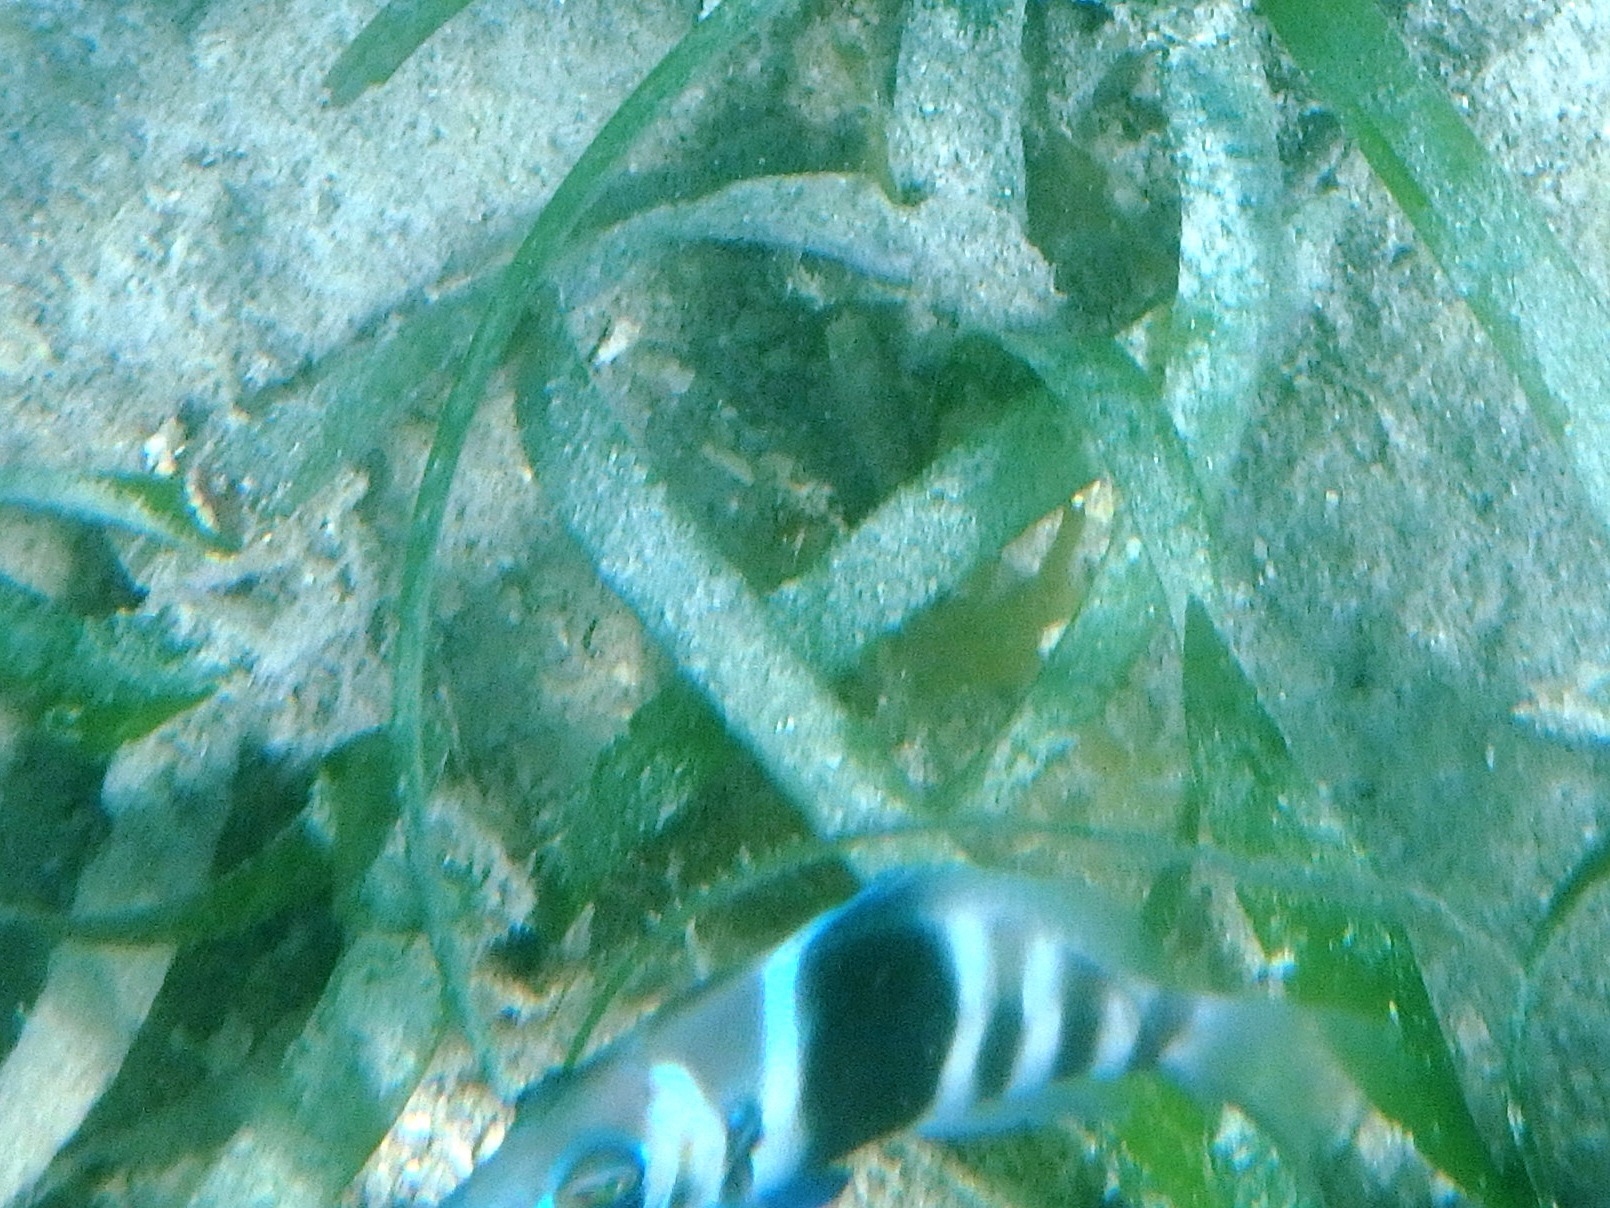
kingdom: Animalia
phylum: Chordata
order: Perciformes
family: Serranidae
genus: Hypoplectrus
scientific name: Hypoplectrus indigo
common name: Indigo hamlet
